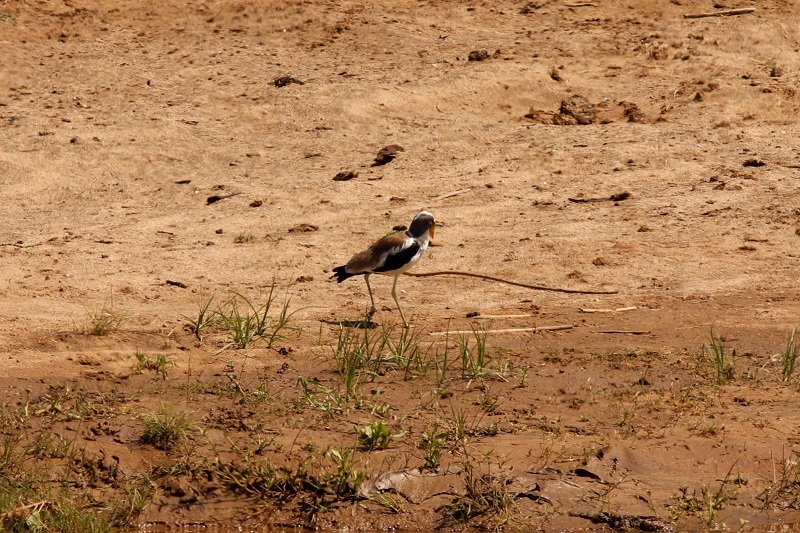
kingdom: Animalia
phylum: Chordata
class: Aves
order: Charadriiformes
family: Charadriidae
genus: Vanellus
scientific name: Vanellus albiceps
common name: White-crowned lapwing
